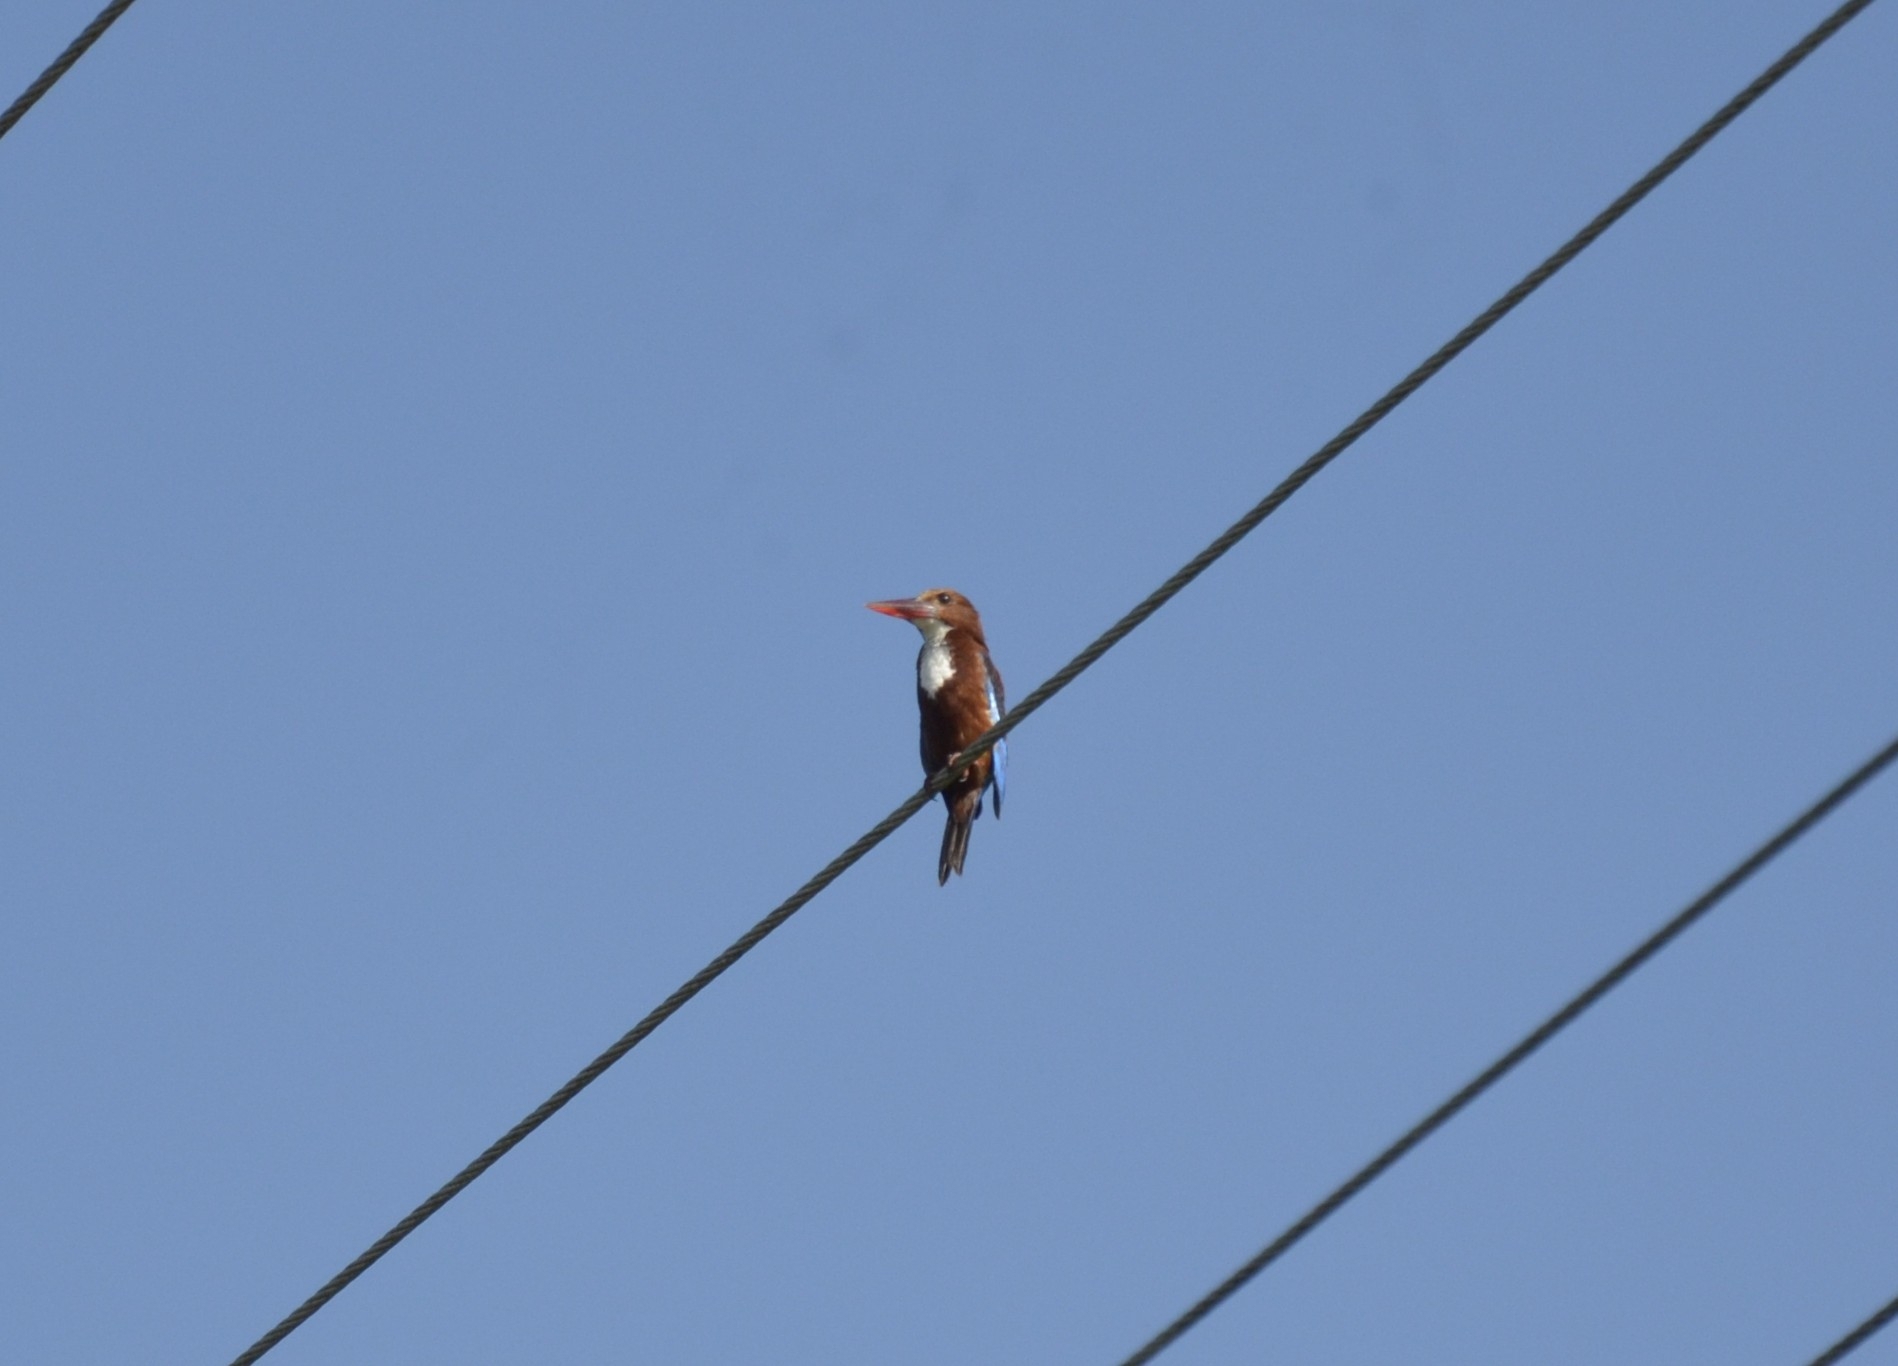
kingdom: Animalia
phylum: Chordata
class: Aves
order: Coraciiformes
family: Alcedinidae
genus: Halcyon
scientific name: Halcyon smyrnensis
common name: White-throated kingfisher
